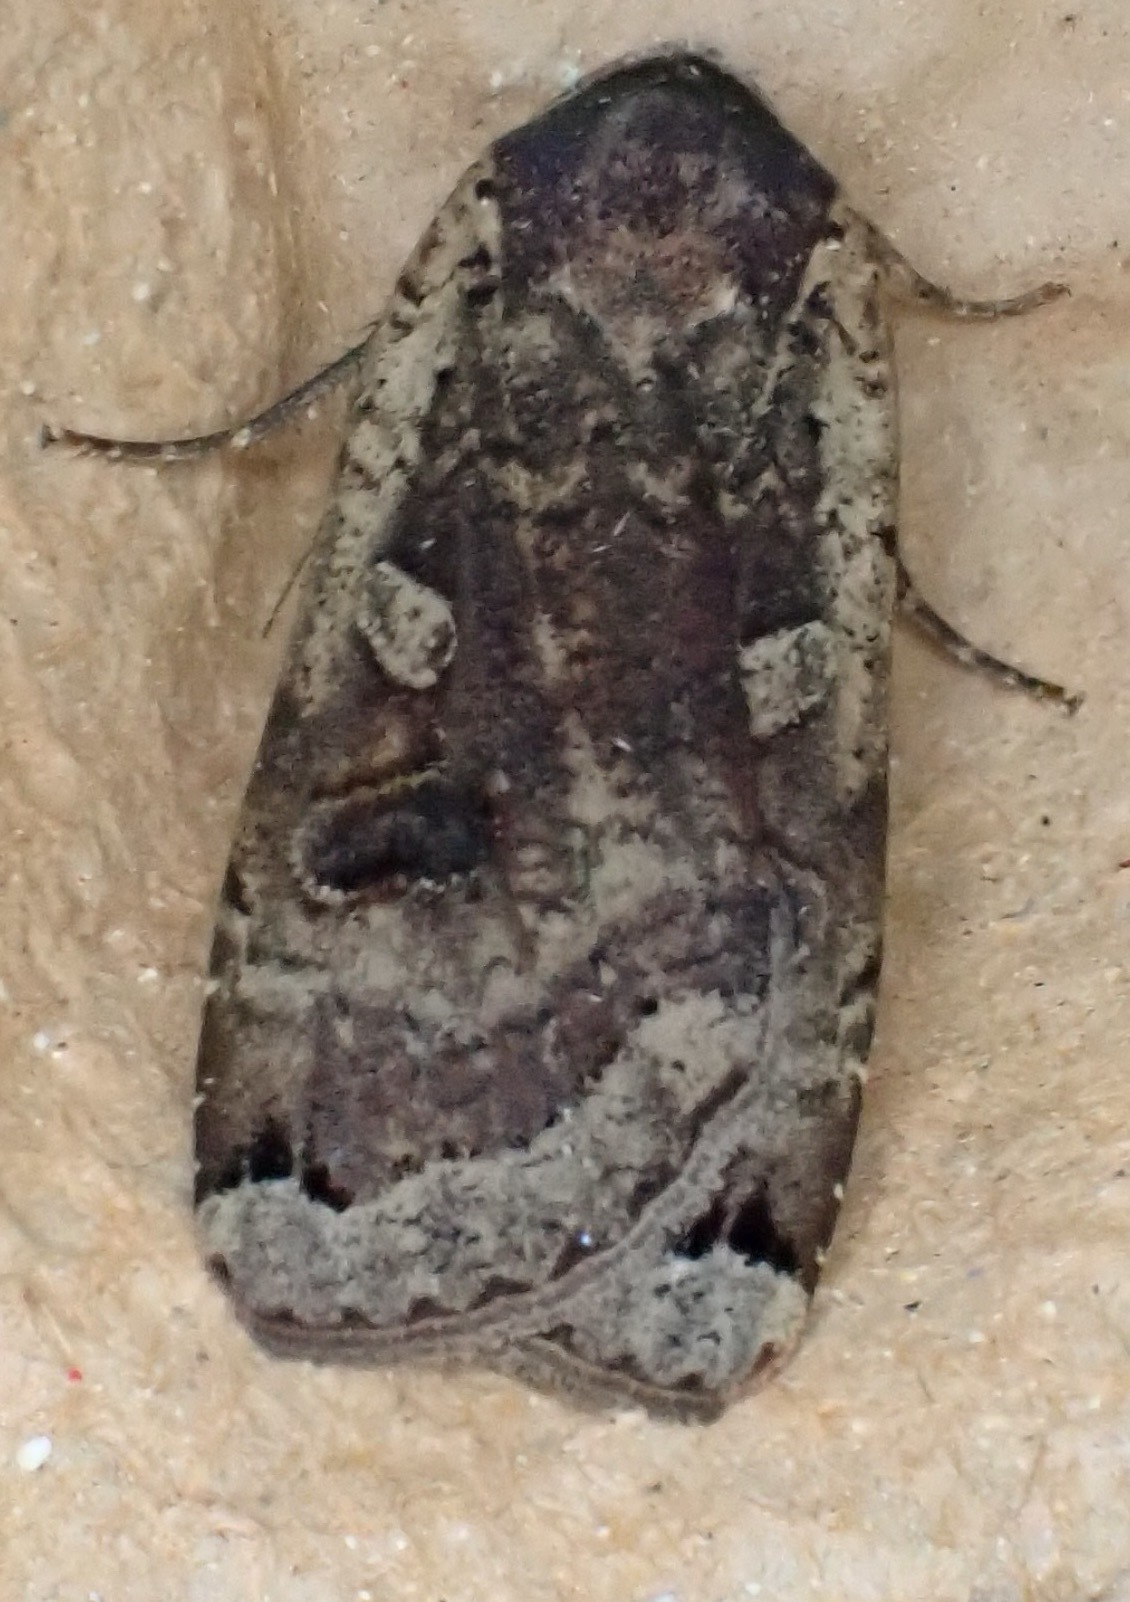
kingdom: Animalia
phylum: Arthropoda
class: Insecta
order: Lepidoptera
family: Noctuidae
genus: Noctua
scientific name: Noctua pronuba
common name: Large yellow underwing
